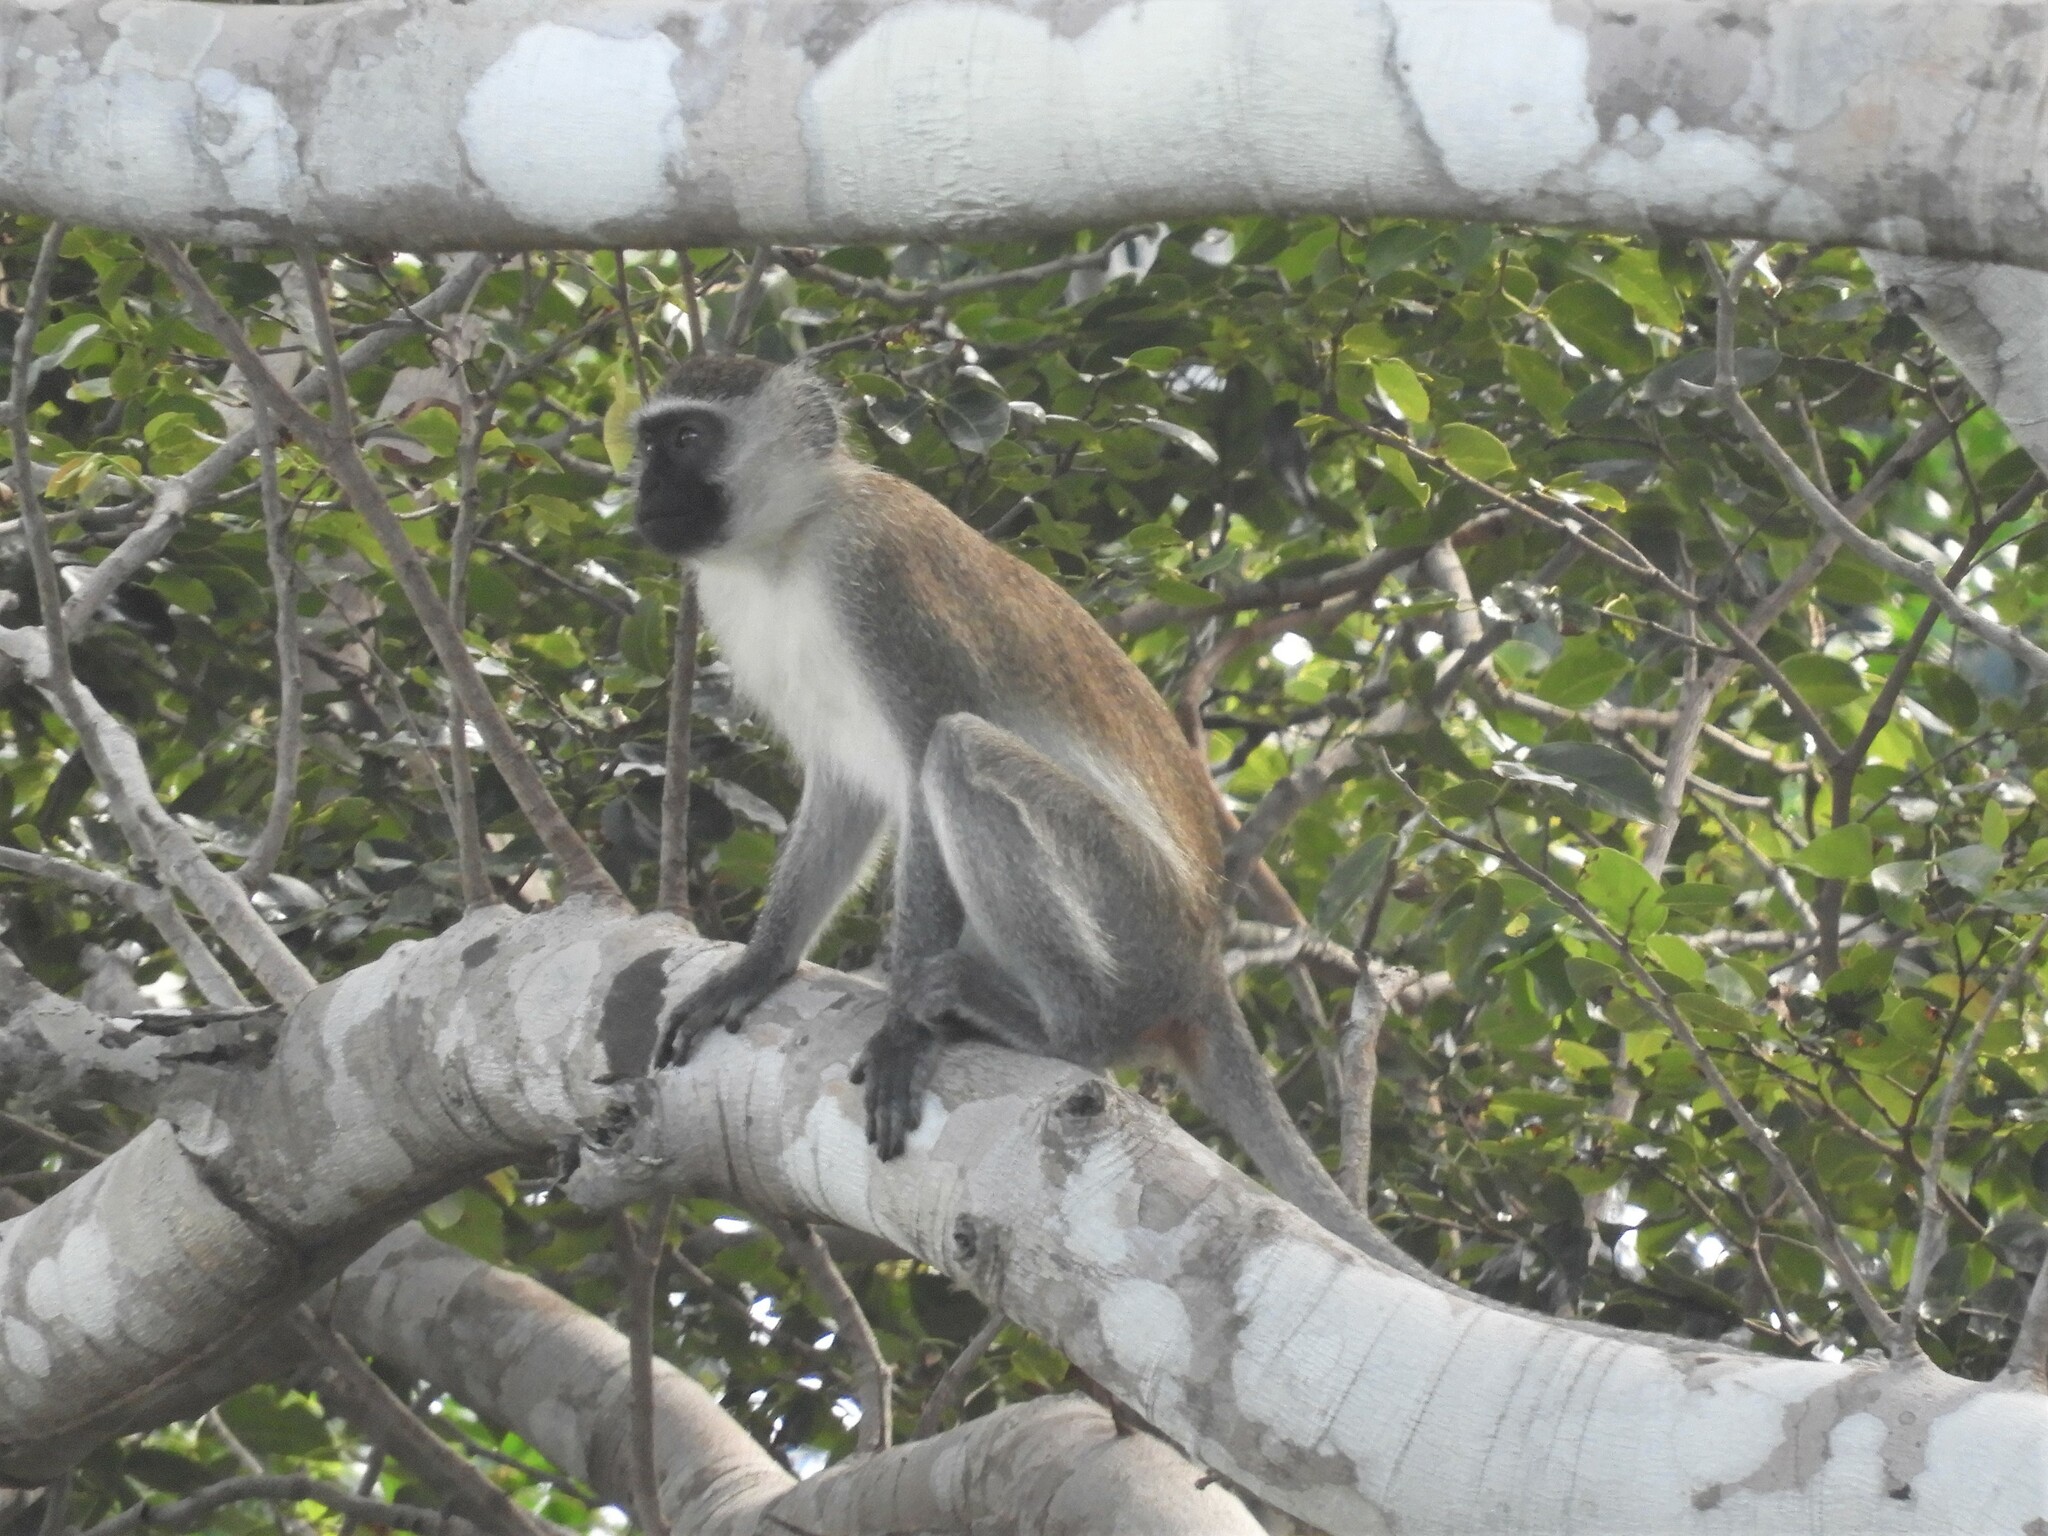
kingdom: Animalia
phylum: Chordata
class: Mammalia
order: Primates
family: Cercopithecidae
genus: Chlorocebus
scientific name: Chlorocebus pygerythrus
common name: Vervet monkey
